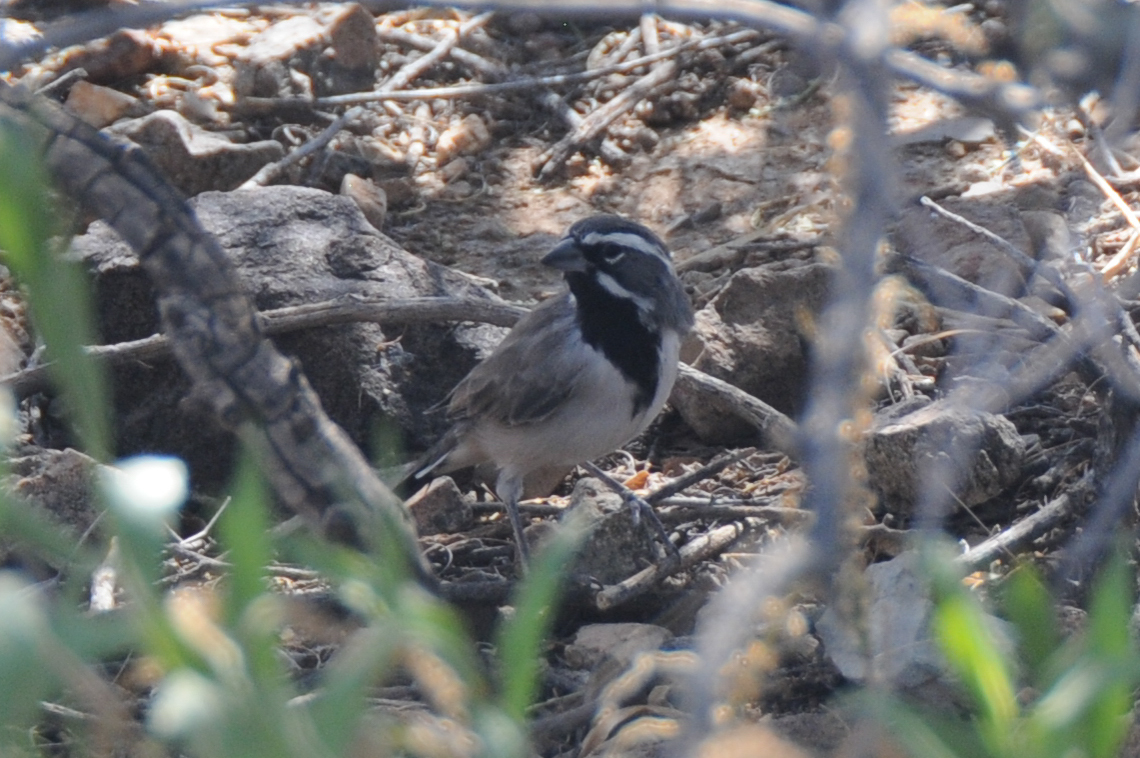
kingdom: Animalia
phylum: Chordata
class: Aves
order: Passeriformes
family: Passerellidae
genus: Amphispiza
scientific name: Amphispiza bilineata
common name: Black-throated sparrow
